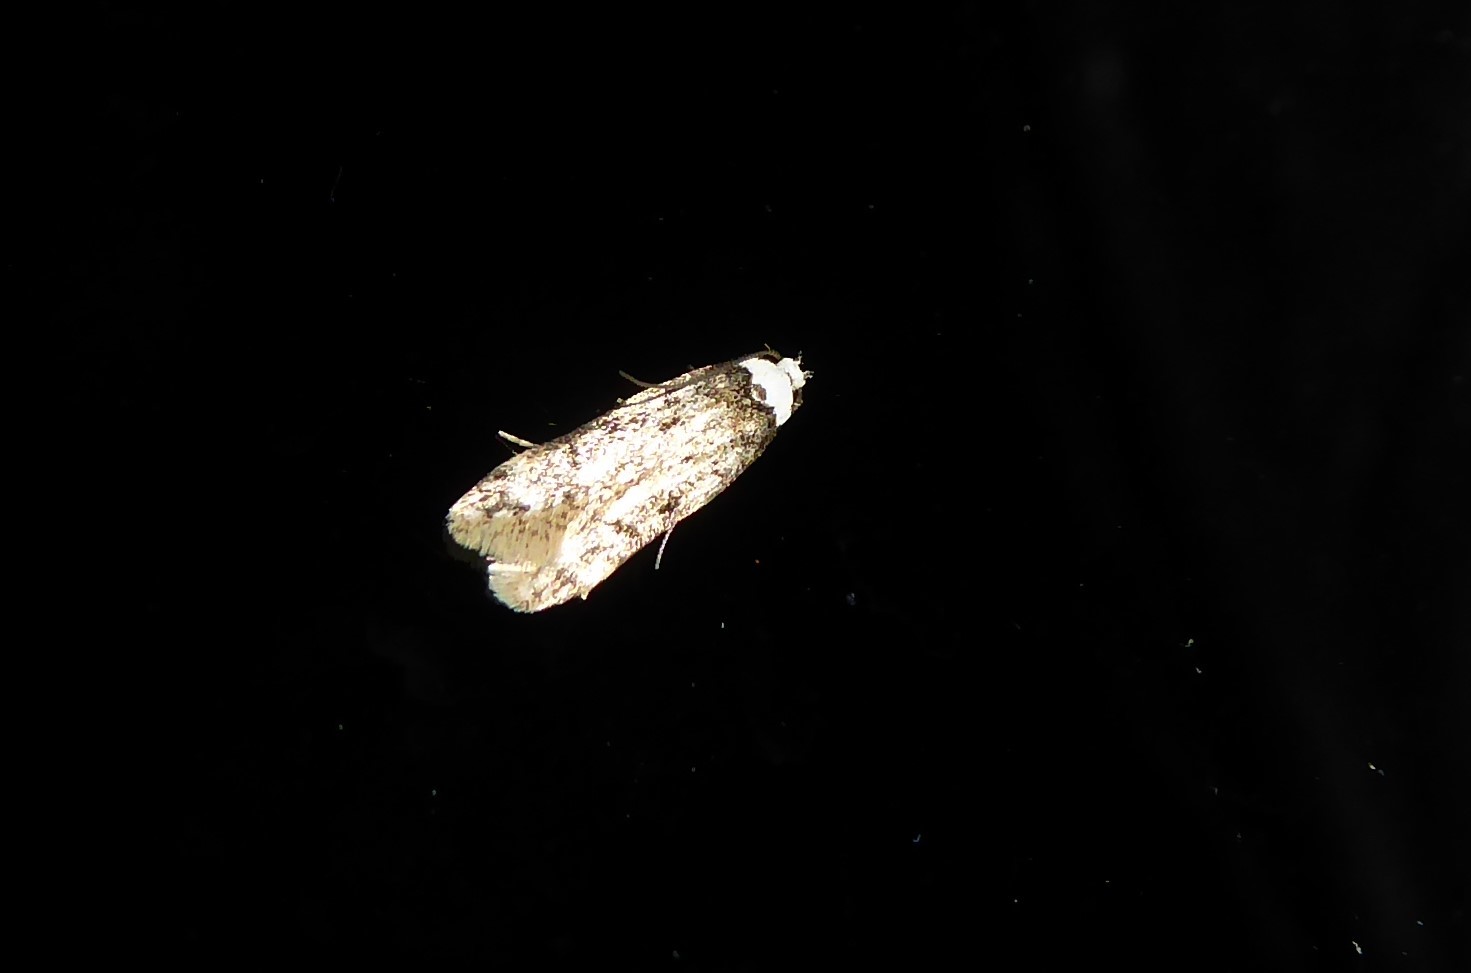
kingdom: Animalia
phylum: Arthropoda
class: Insecta
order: Lepidoptera
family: Oecophoridae
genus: Endrosis
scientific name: Endrosis sarcitrella
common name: White-shouldered house moth
